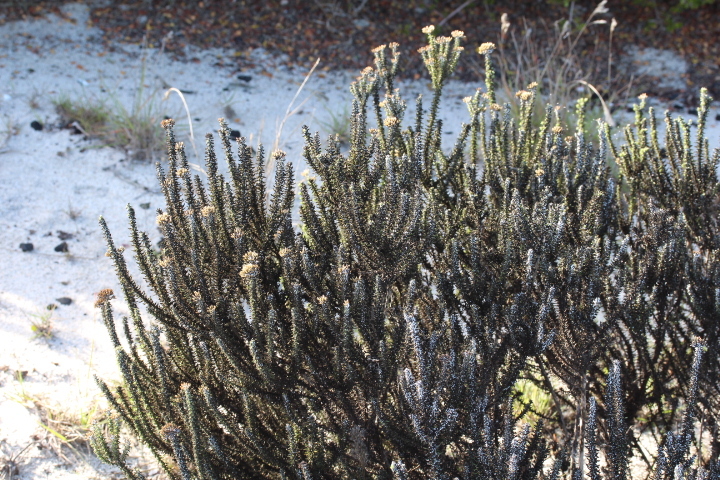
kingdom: Plantae
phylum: Tracheophyta
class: Magnoliopsida
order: Asterales
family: Asteraceae
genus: Metalasia
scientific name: Metalasia muricata
